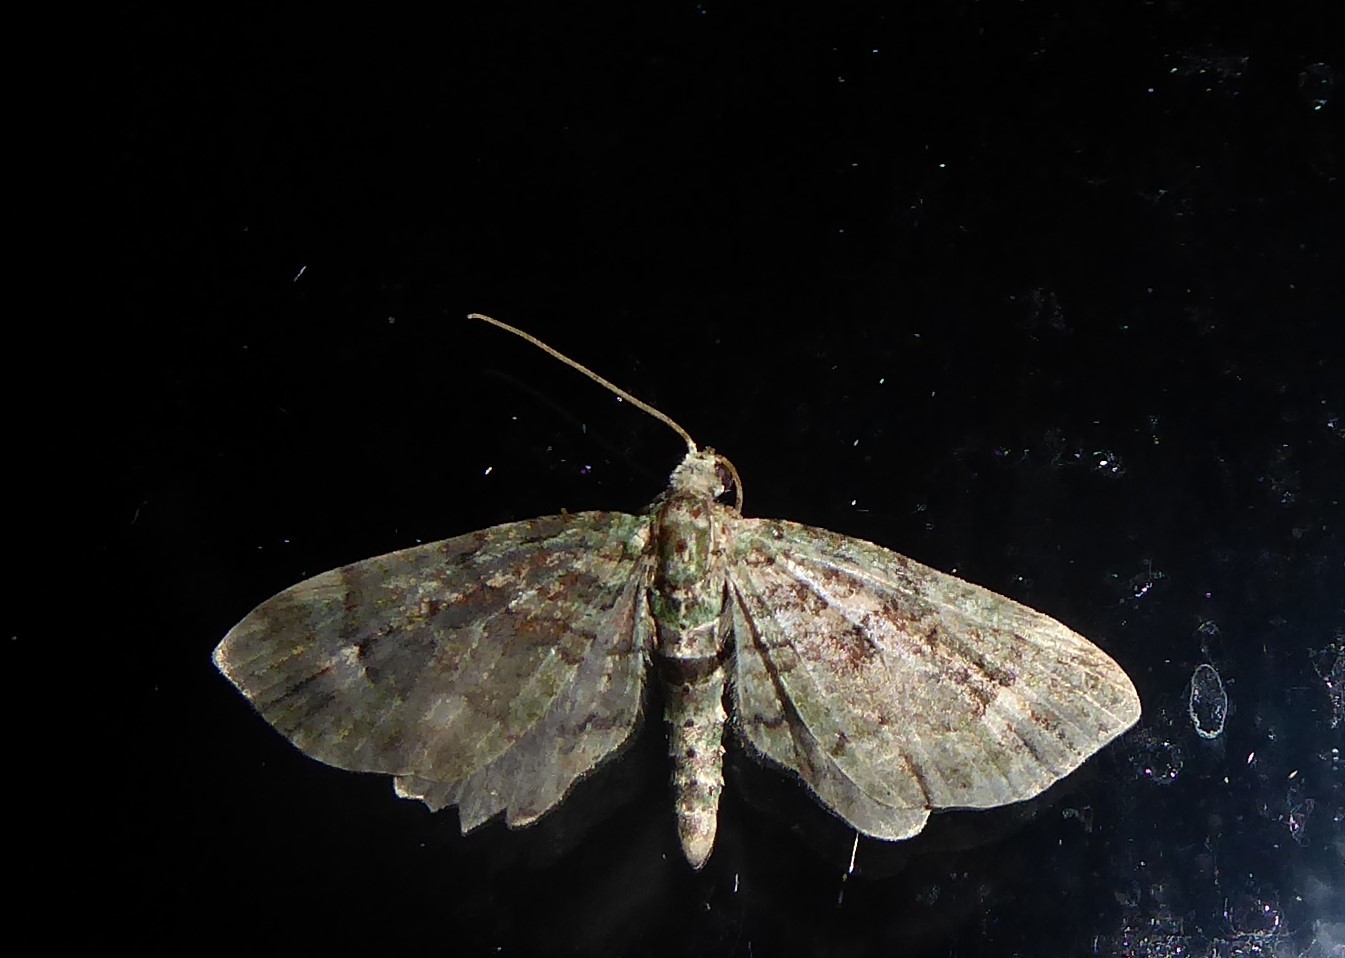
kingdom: Animalia
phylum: Arthropoda
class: Insecta
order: Lepidoptera
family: Geometridae
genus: Idaea
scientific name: Idaea mutanda
